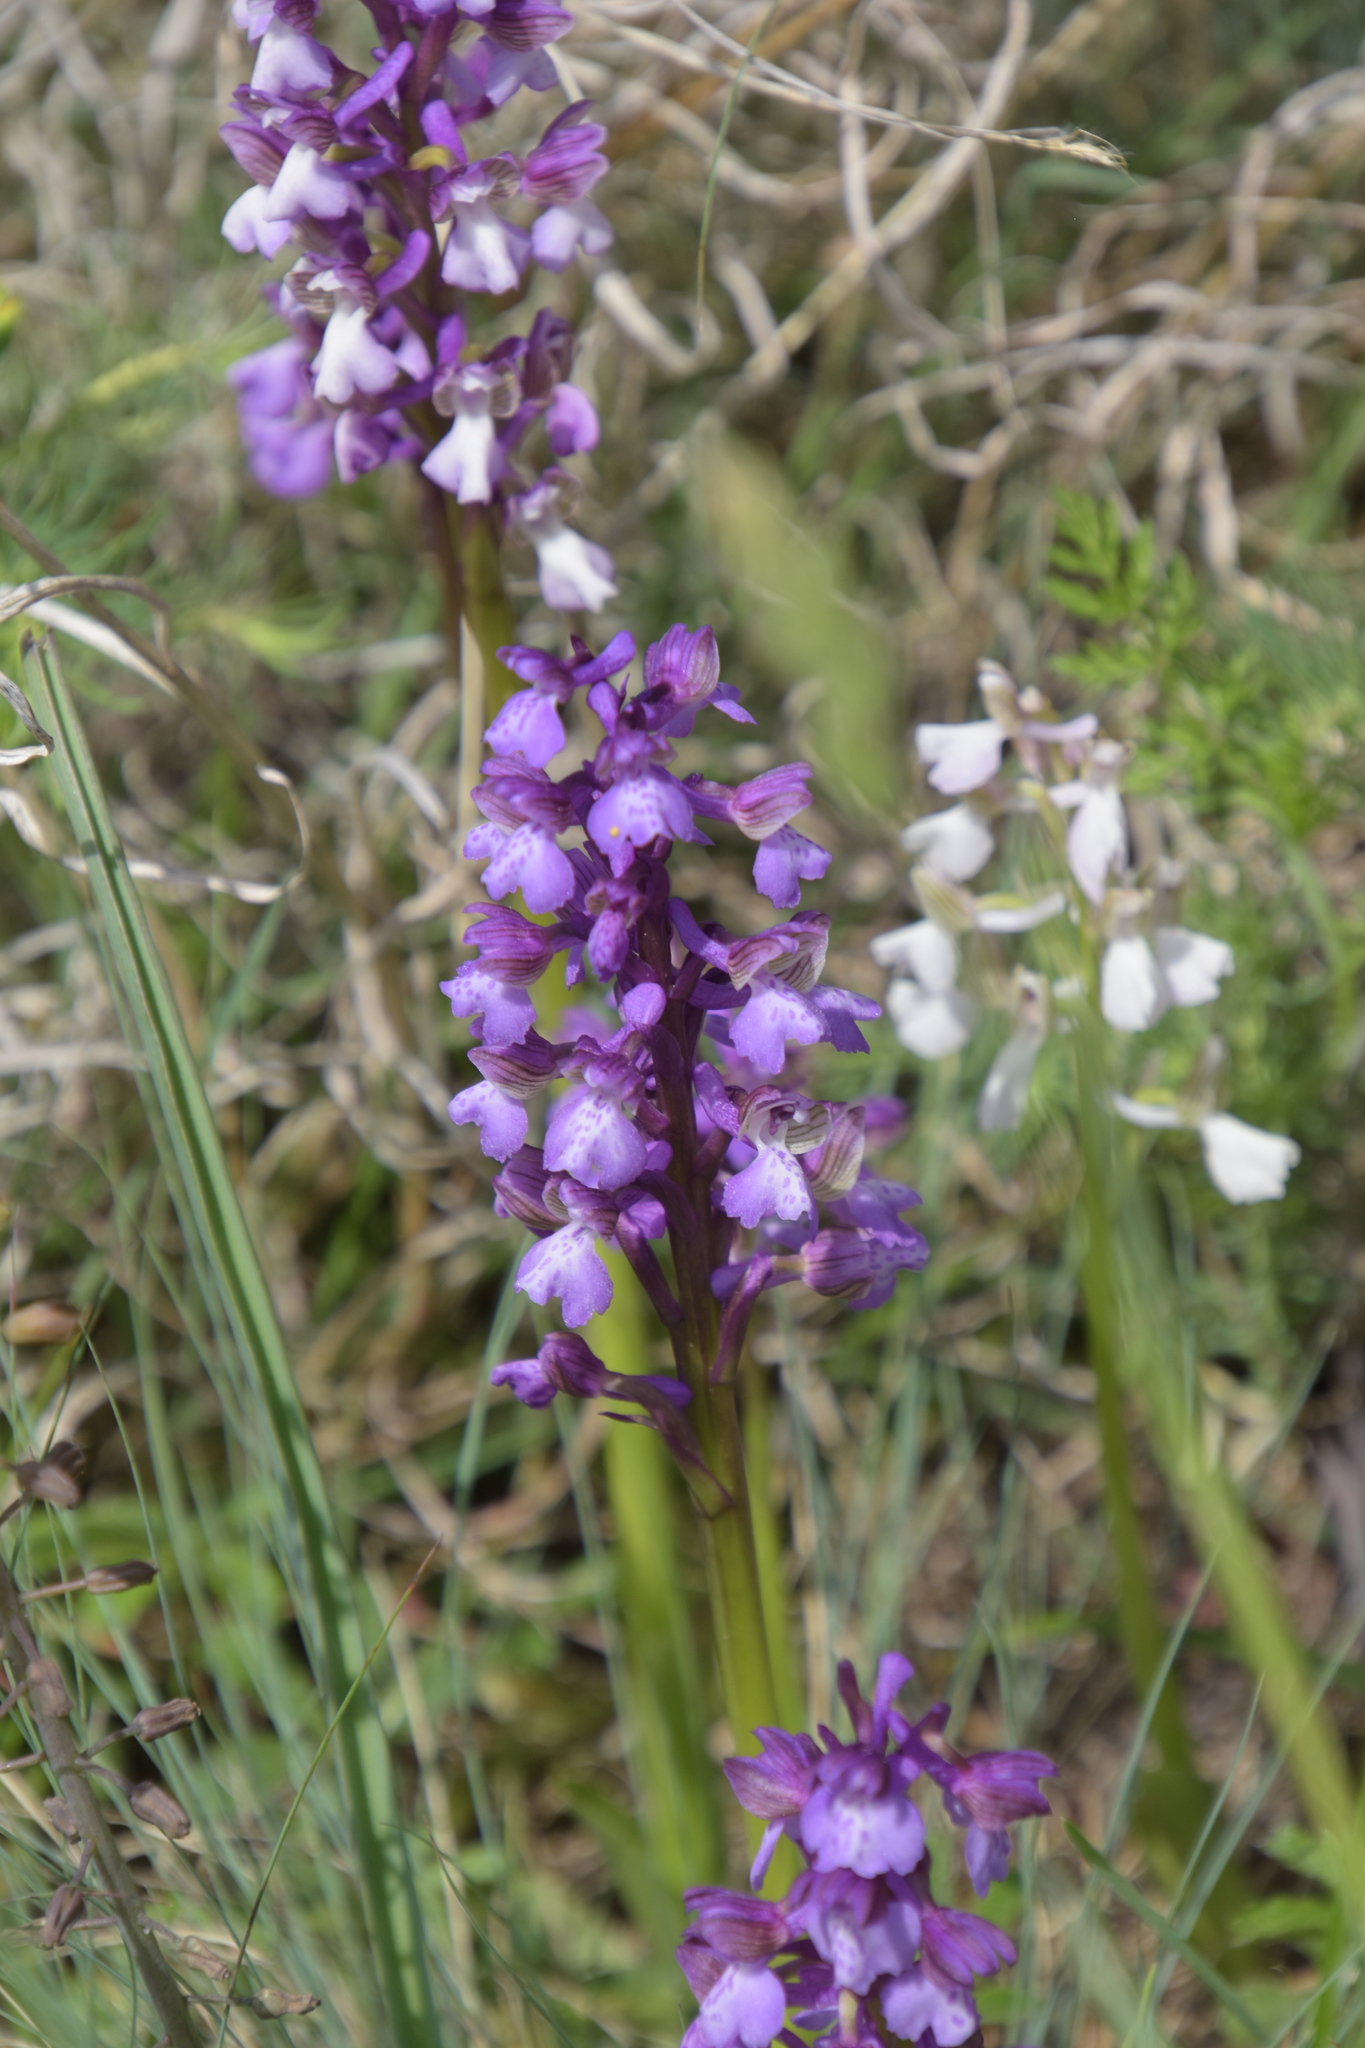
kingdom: Plantae
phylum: Tracheophyta
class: Liliopsida
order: Asparagales
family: Orchidaceae
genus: Anacamptis
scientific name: Anacamptis morio
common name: Green-winged orchid
